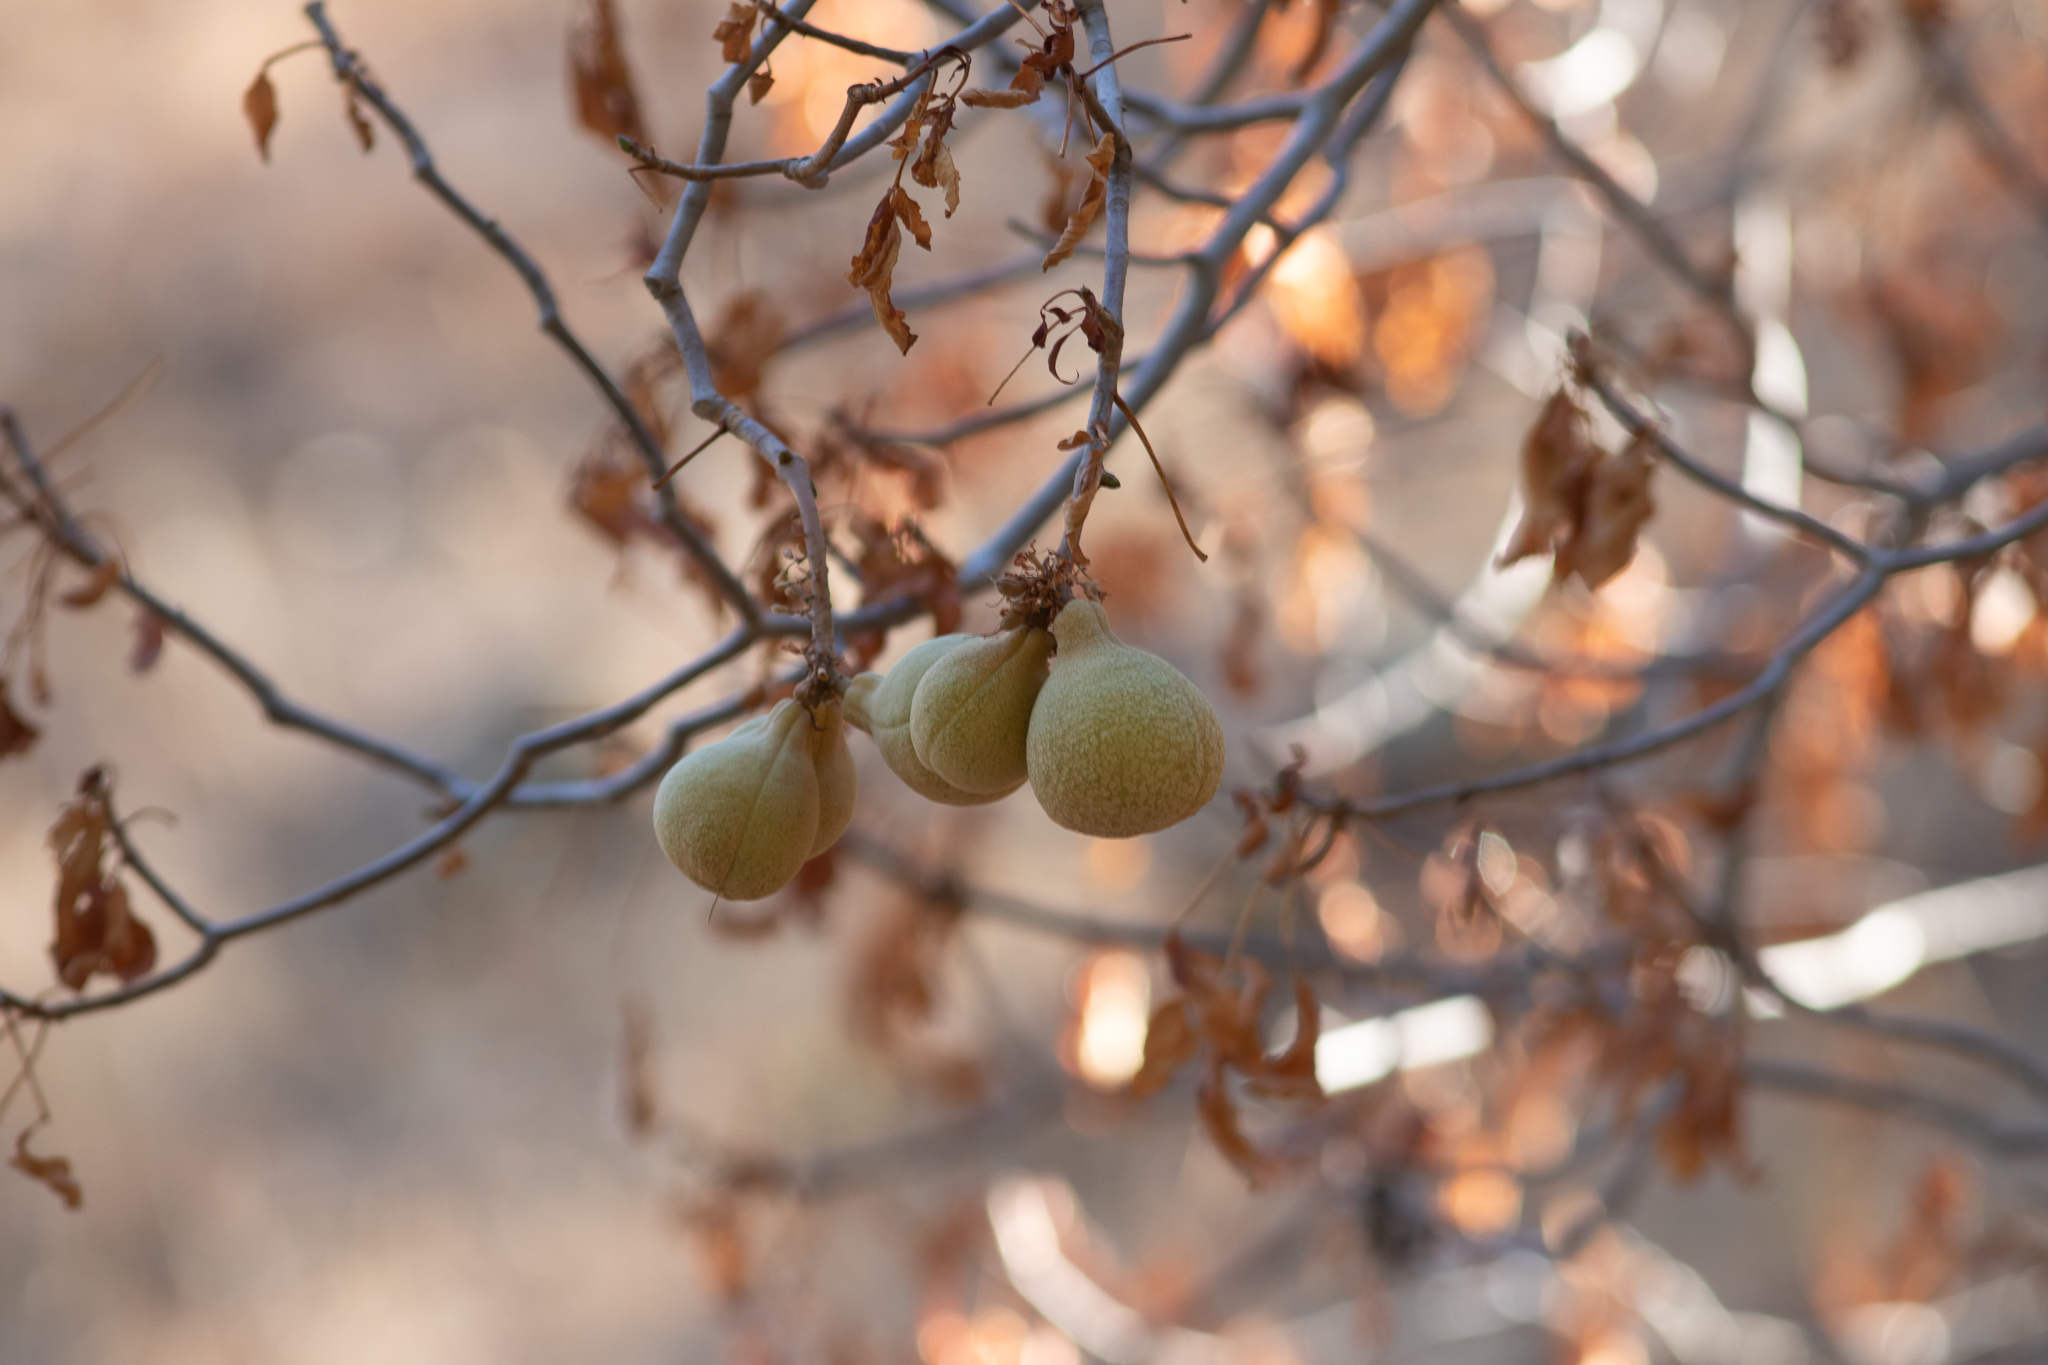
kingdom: Plantae
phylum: Tracheophyta
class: Magnoliopsida
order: Sapindales
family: Sapindaceae
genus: Aesculus
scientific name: Aesculus californica
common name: California buckeye
